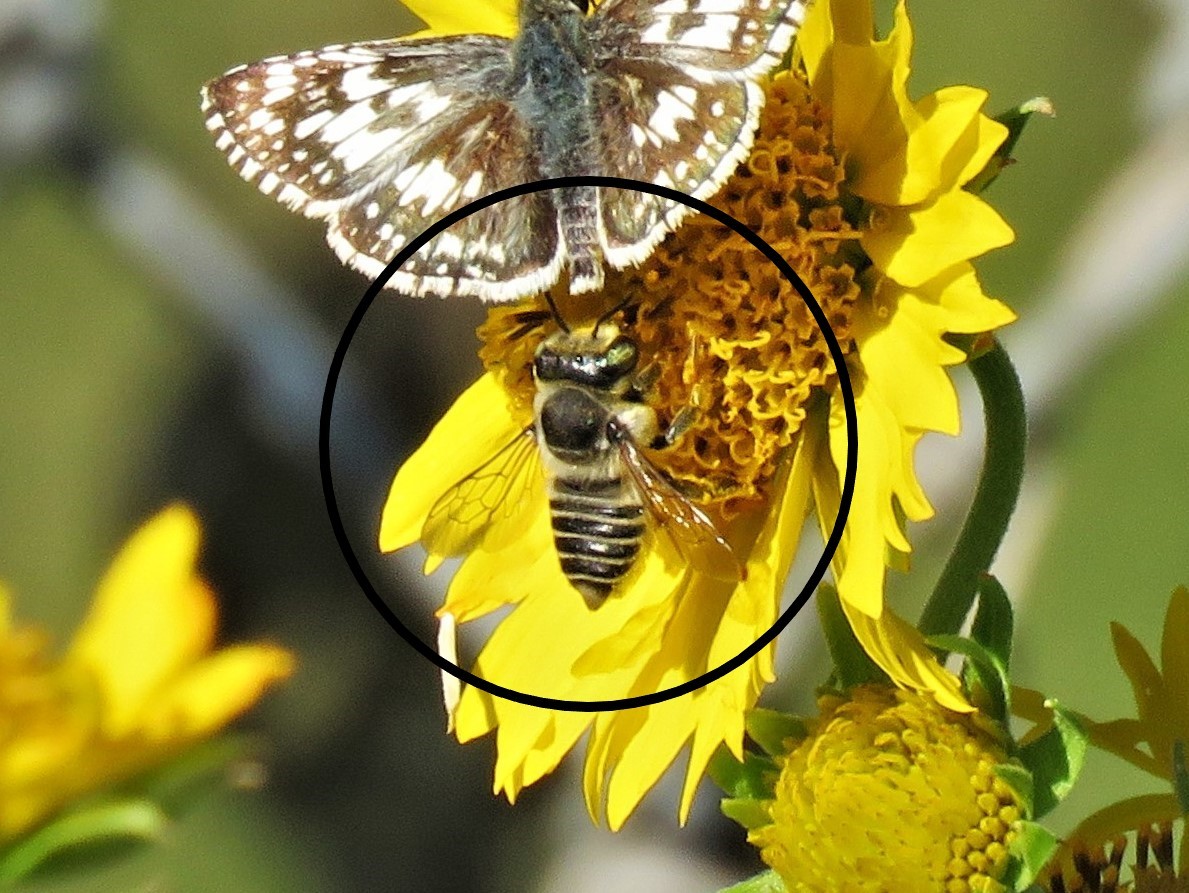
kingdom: Animalia
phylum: Arthropoda
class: Insecta
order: Hymenoptera
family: Megachilidae
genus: Megachile
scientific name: Megachile parallela
